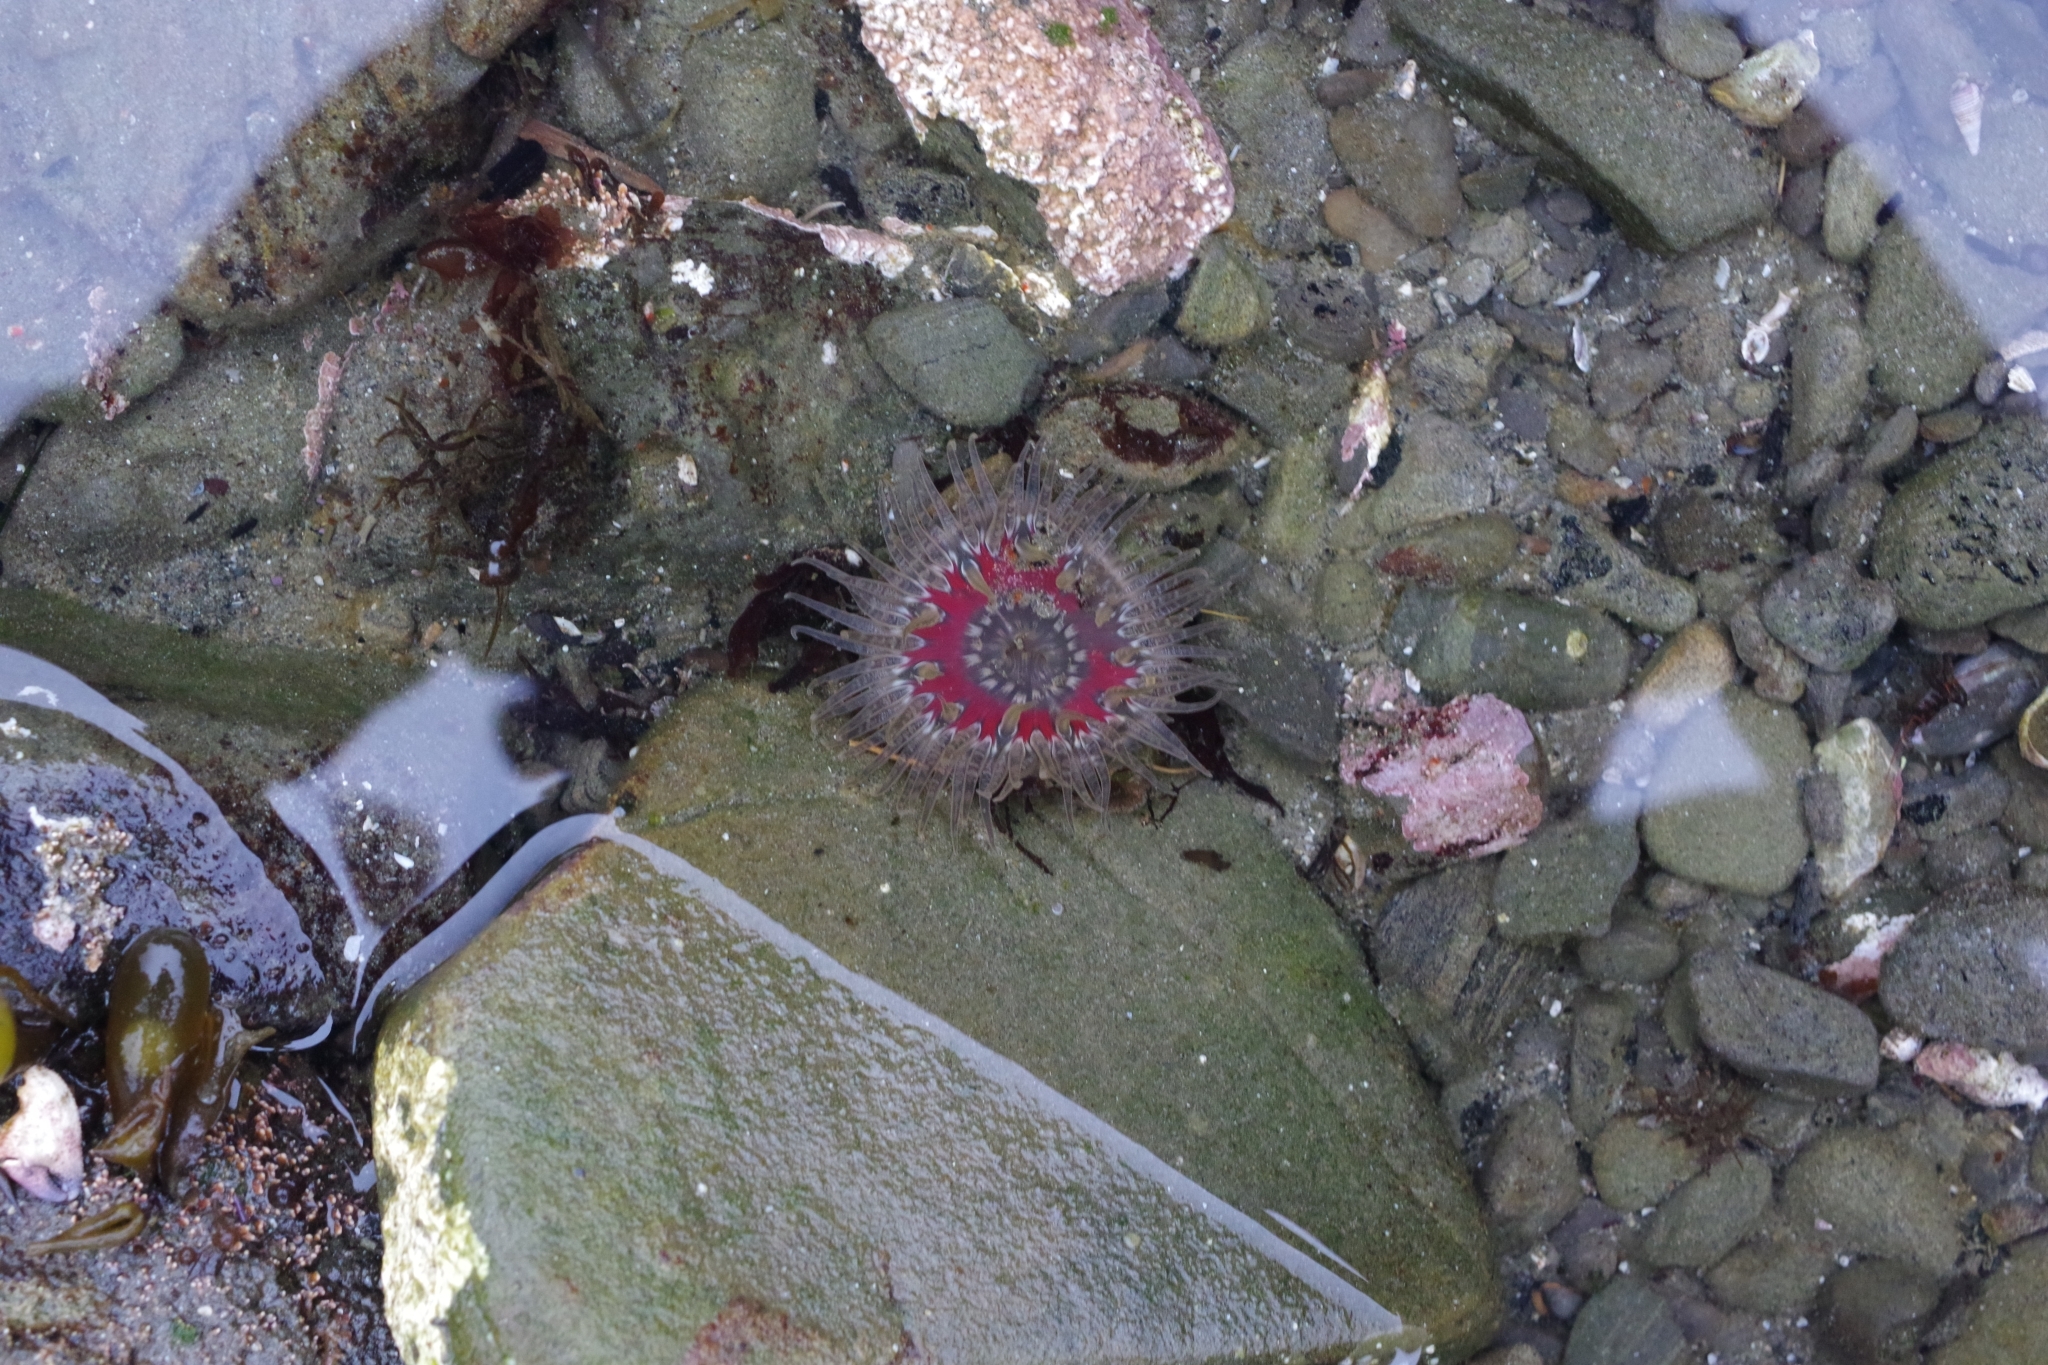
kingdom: Animalia
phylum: Cnidaria
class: Anthozoa
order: Actiniaria
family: Actiniidae
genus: Anthopleura
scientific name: Anthopleura artemisia
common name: Buried sea anemone
